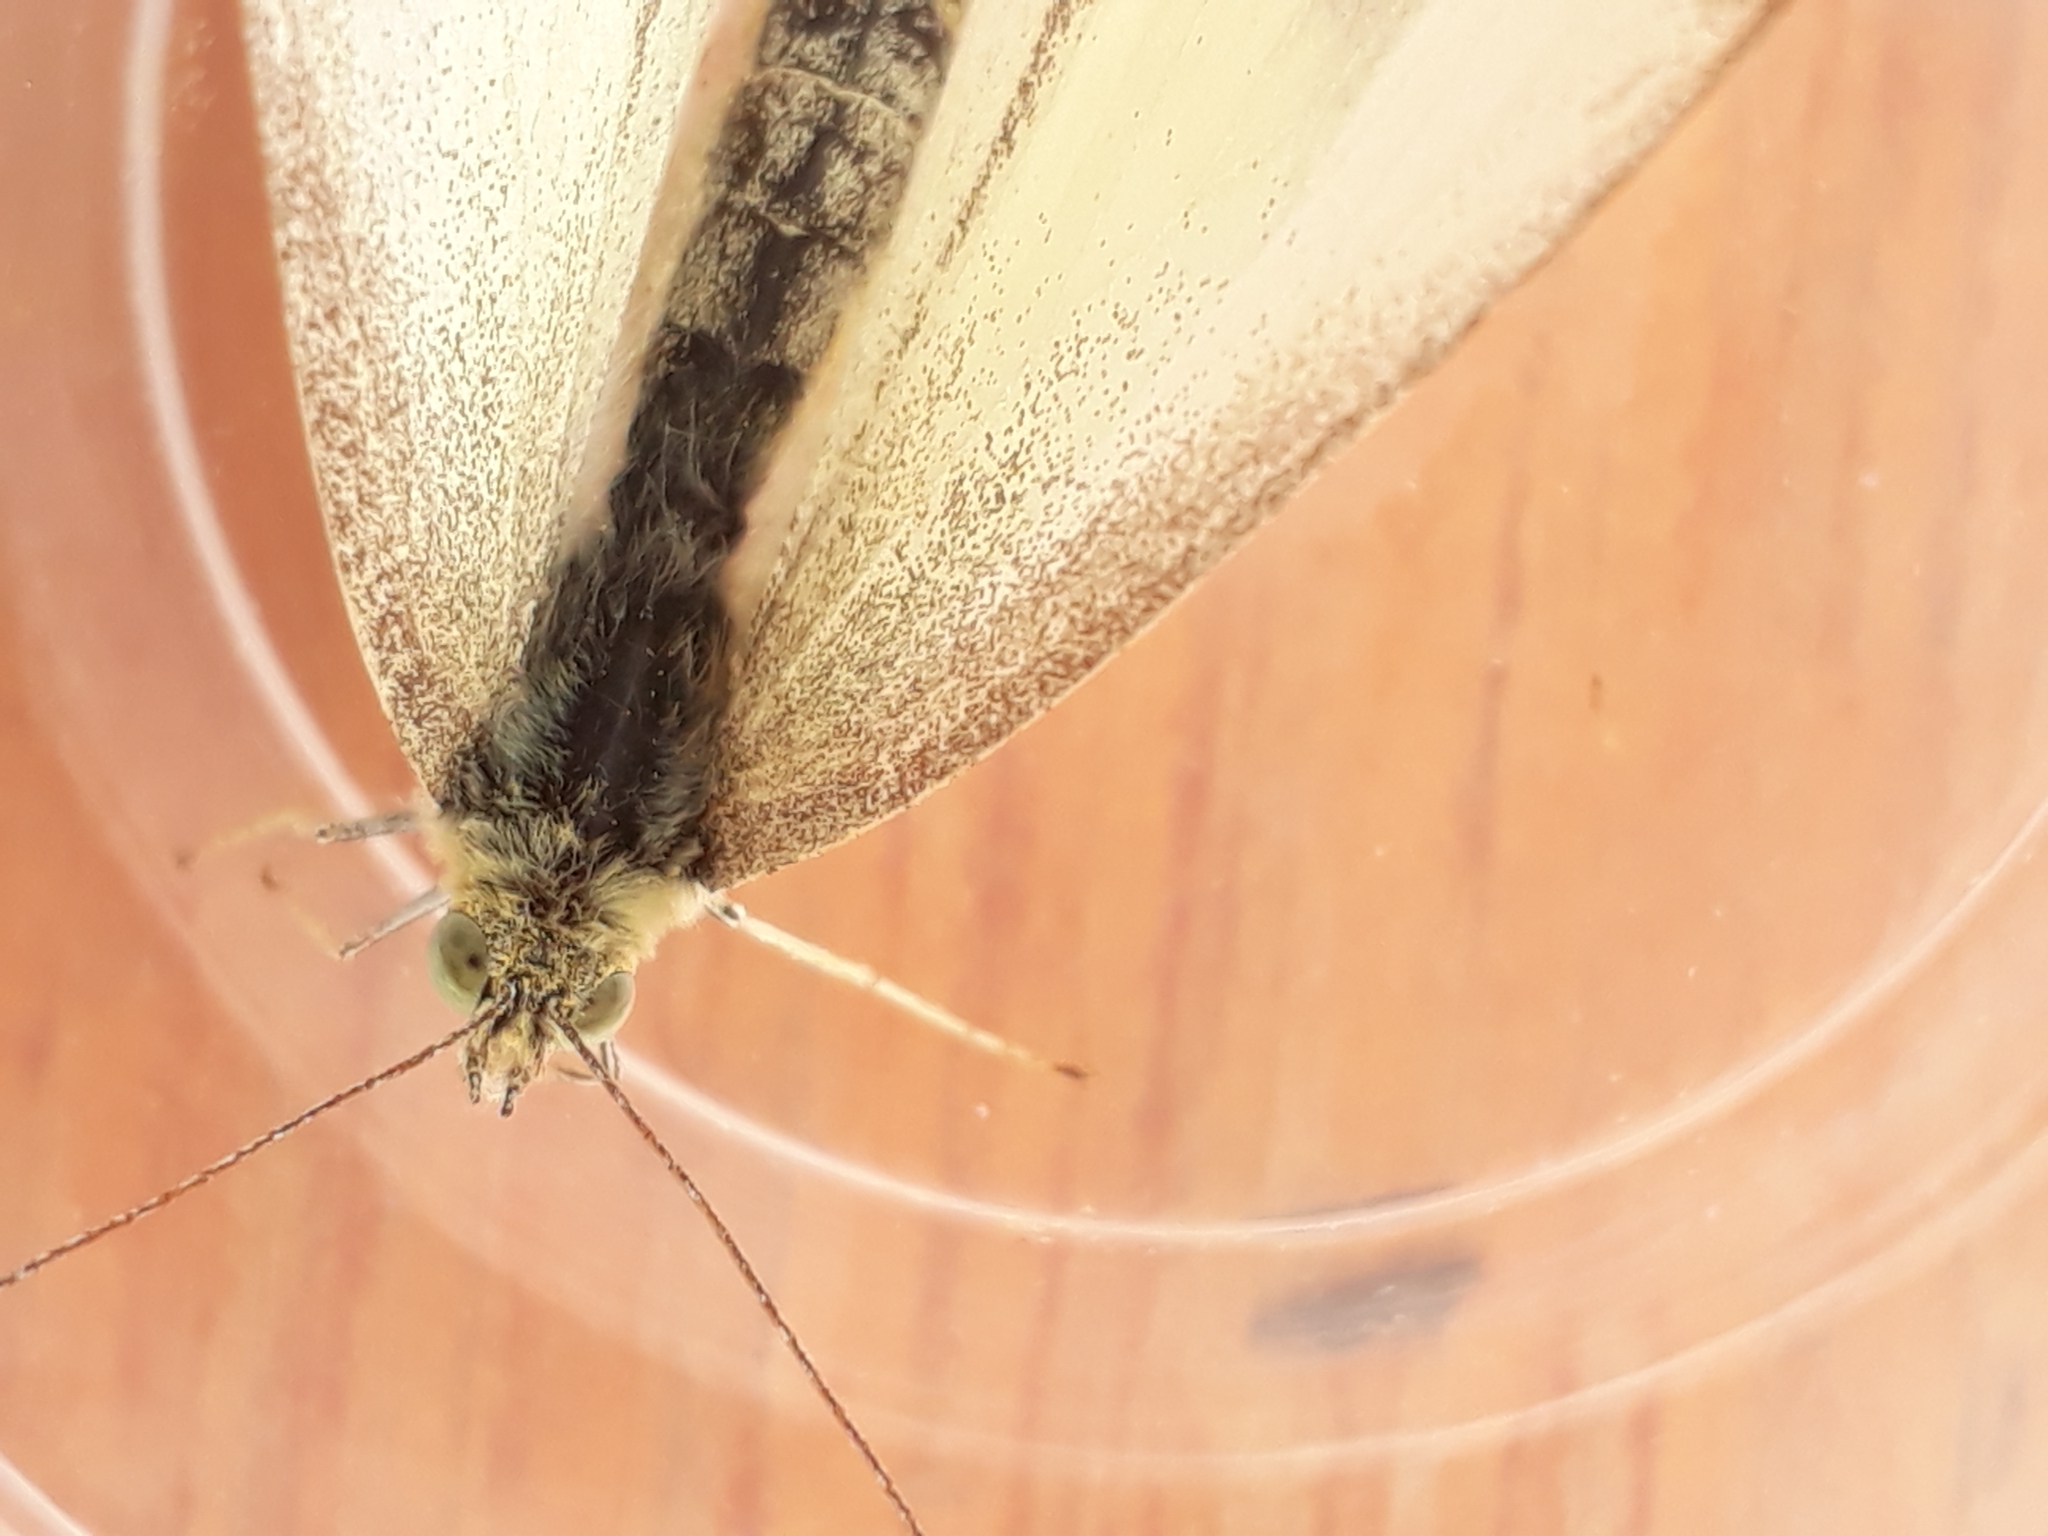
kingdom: Animalia
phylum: Arthropoda
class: Insecta
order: Lepidoptera
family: Pieridae
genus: Pieris
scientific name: Pieris rapae
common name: Small white
